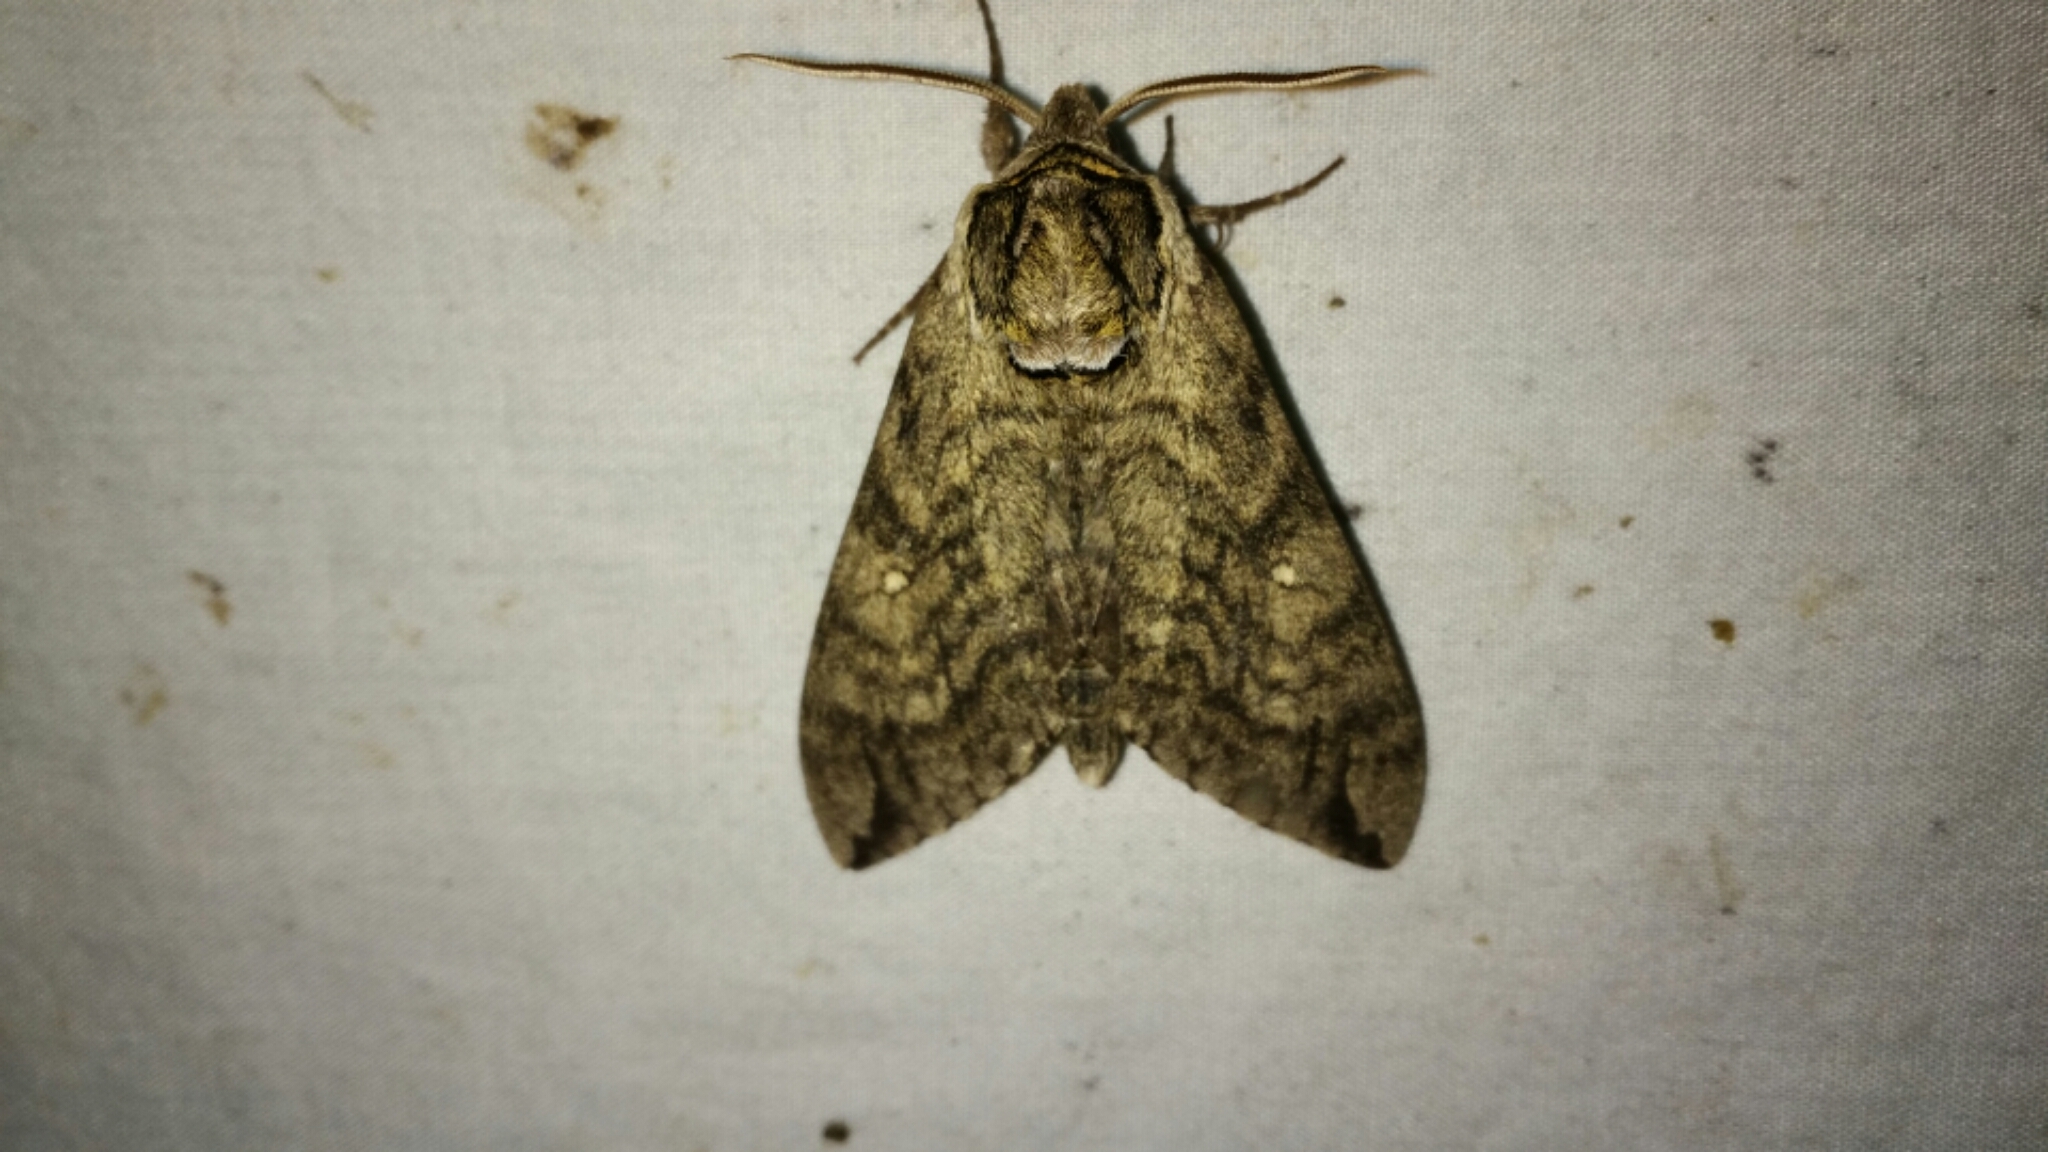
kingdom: Animalia
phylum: Arthropoda
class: Insecta
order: Lepidoptera
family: Sphingidae
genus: Ceratomia
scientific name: Ceratomia undulosa
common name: Waved sphinx
